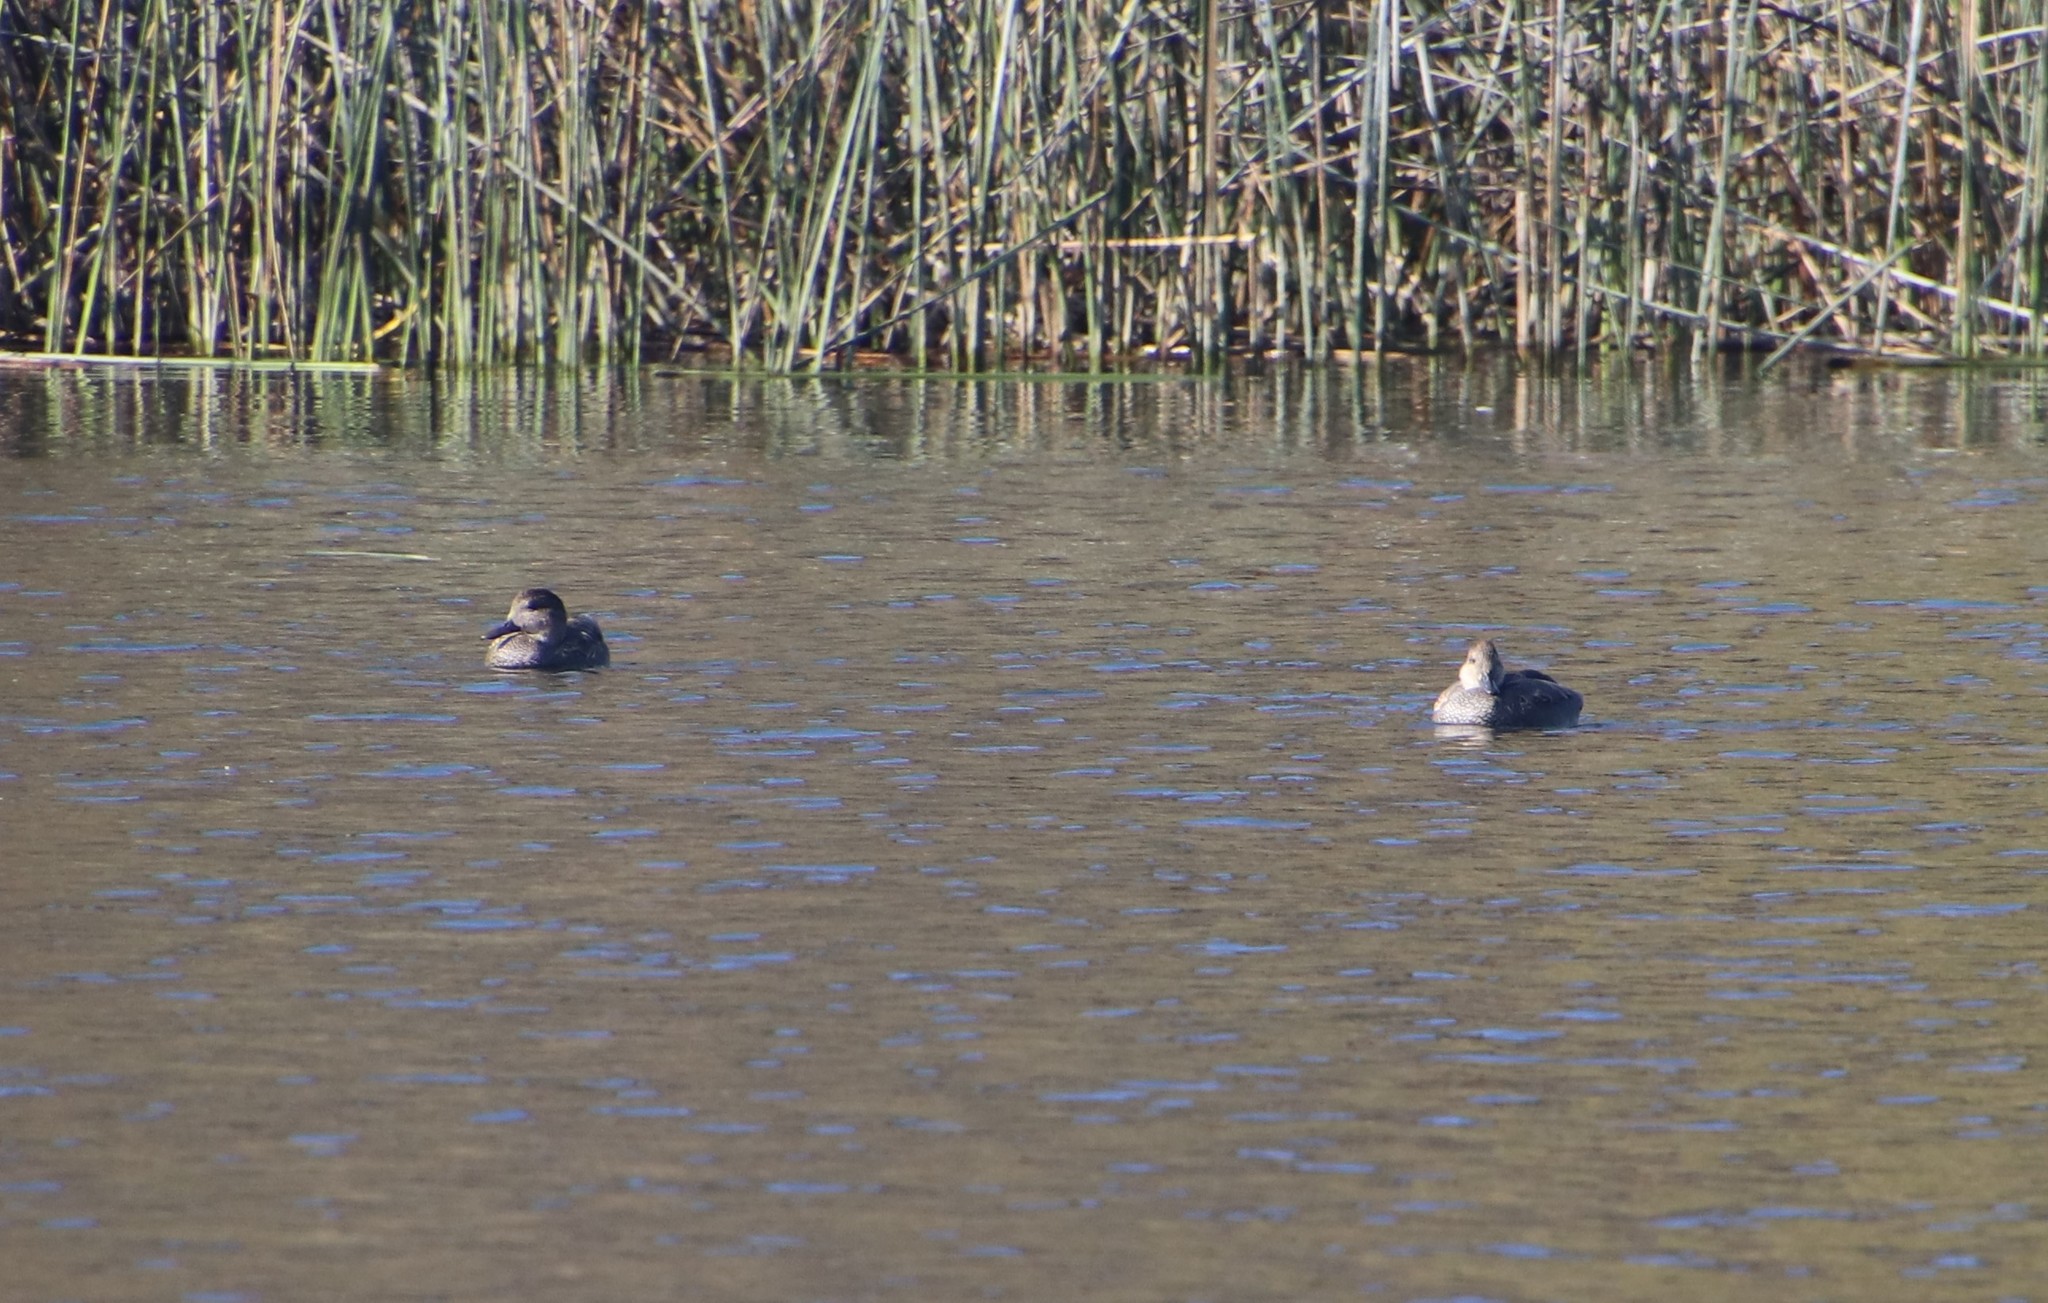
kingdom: Animalia
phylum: Chordata
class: Aves
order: Anseriformes
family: Anatidae
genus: Mareca
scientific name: Mareca strepera
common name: Gadwall
